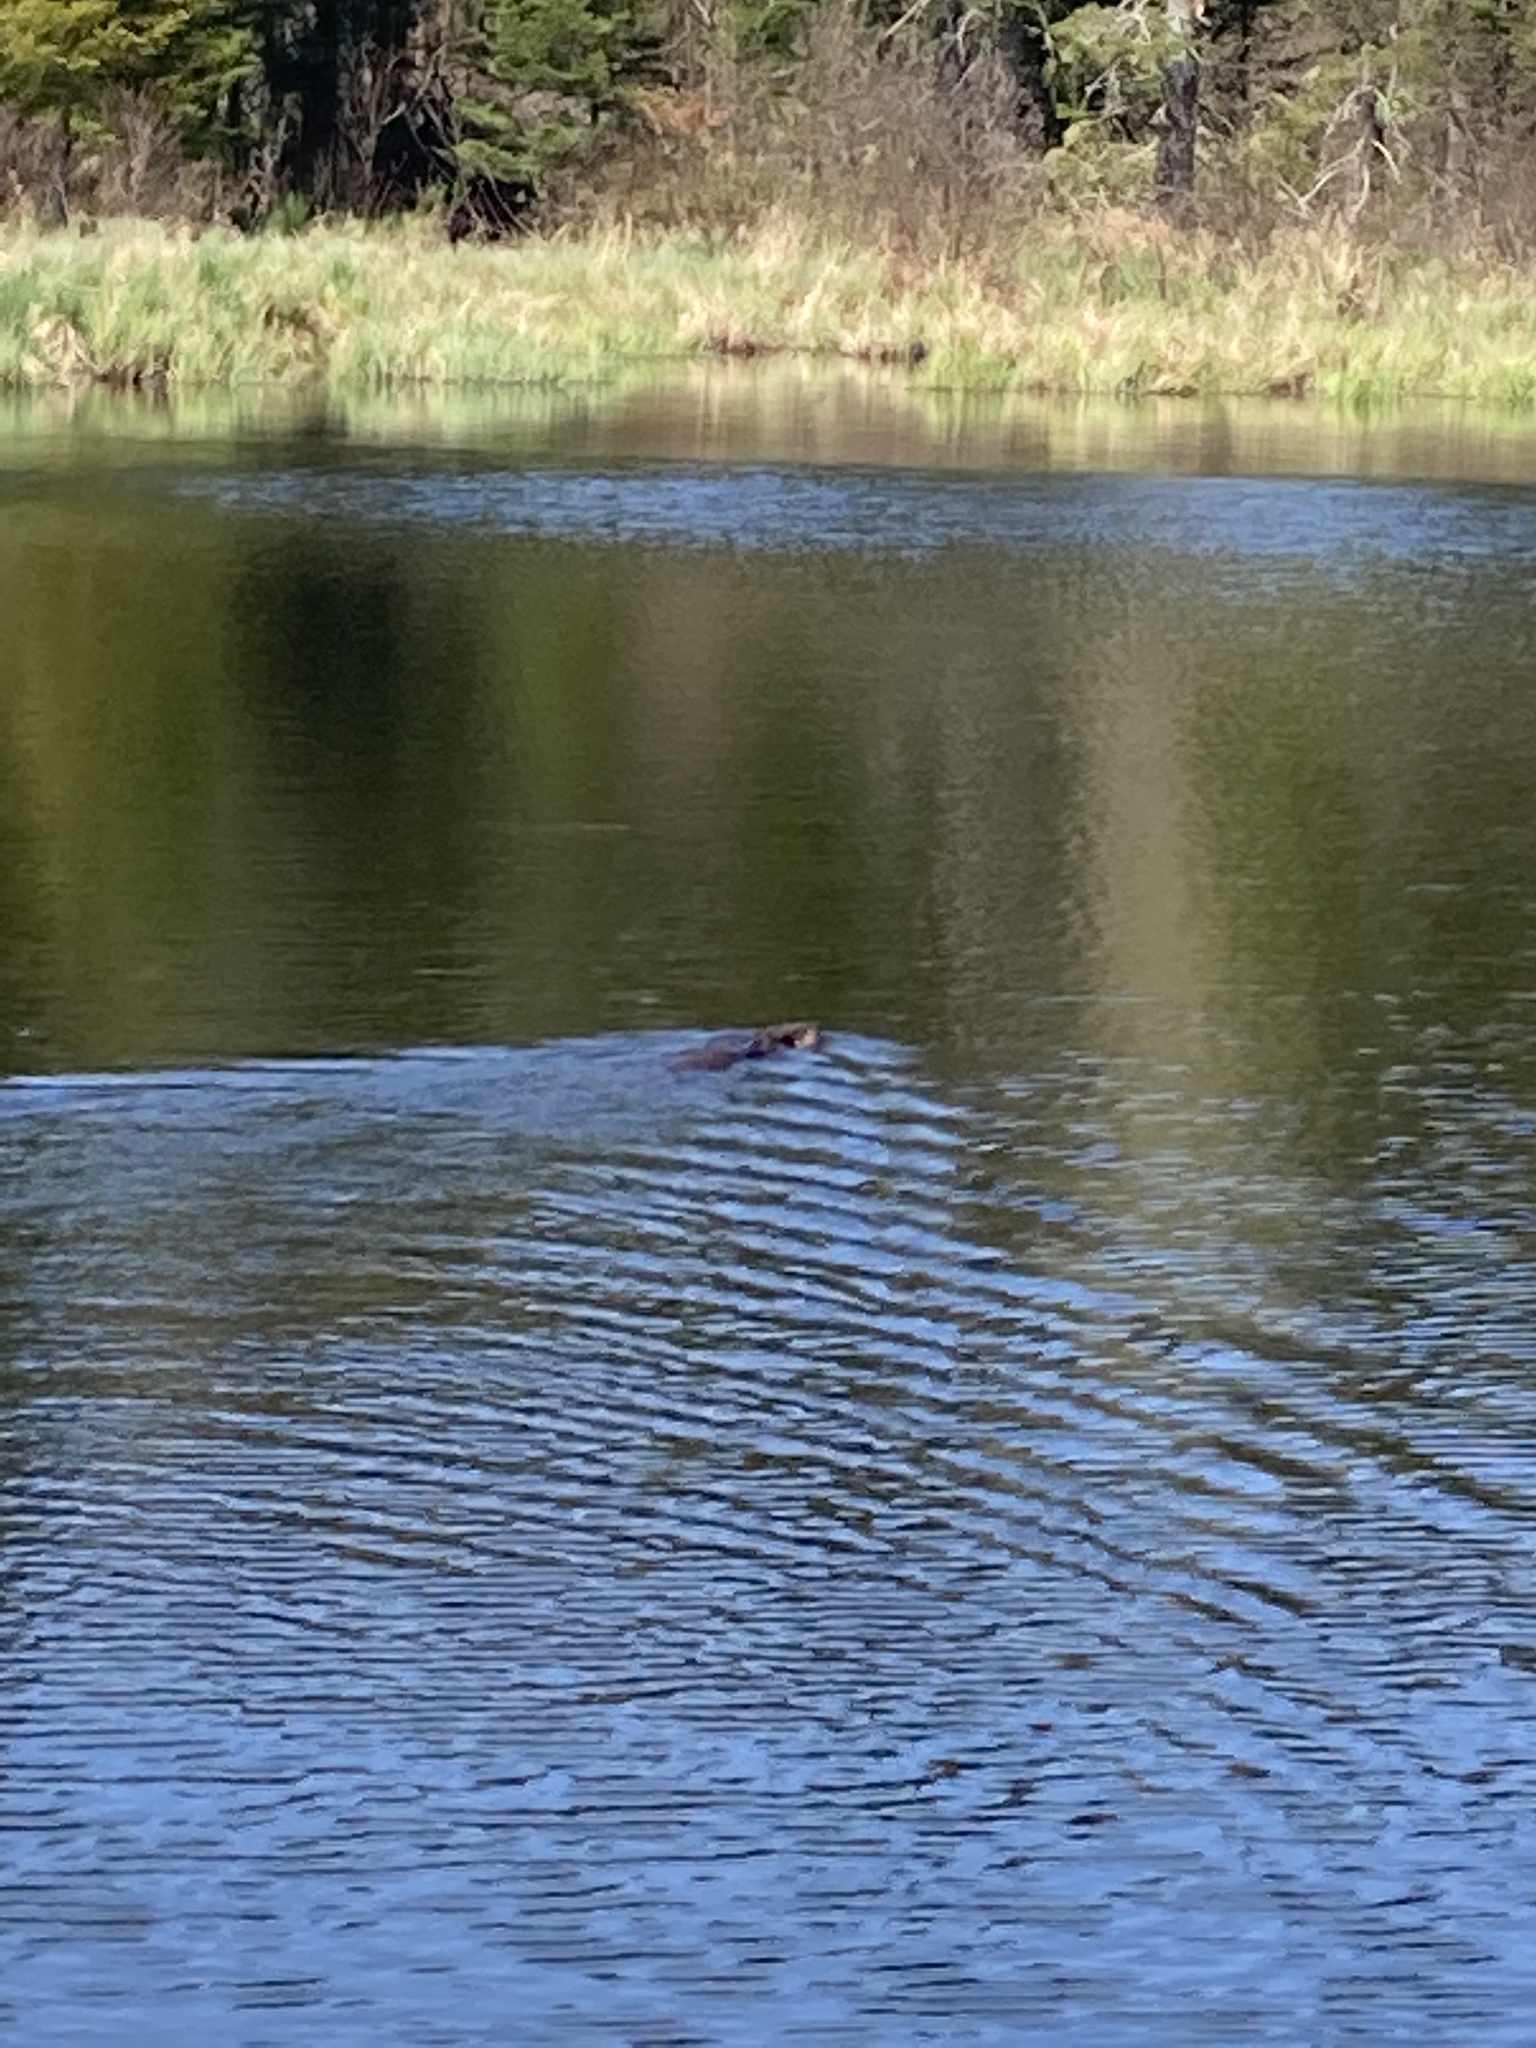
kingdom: Animalia
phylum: Chordata
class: Mammalia
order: Rodentia
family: Castoridae
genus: Castor
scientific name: Castor canadensis
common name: American beaver
